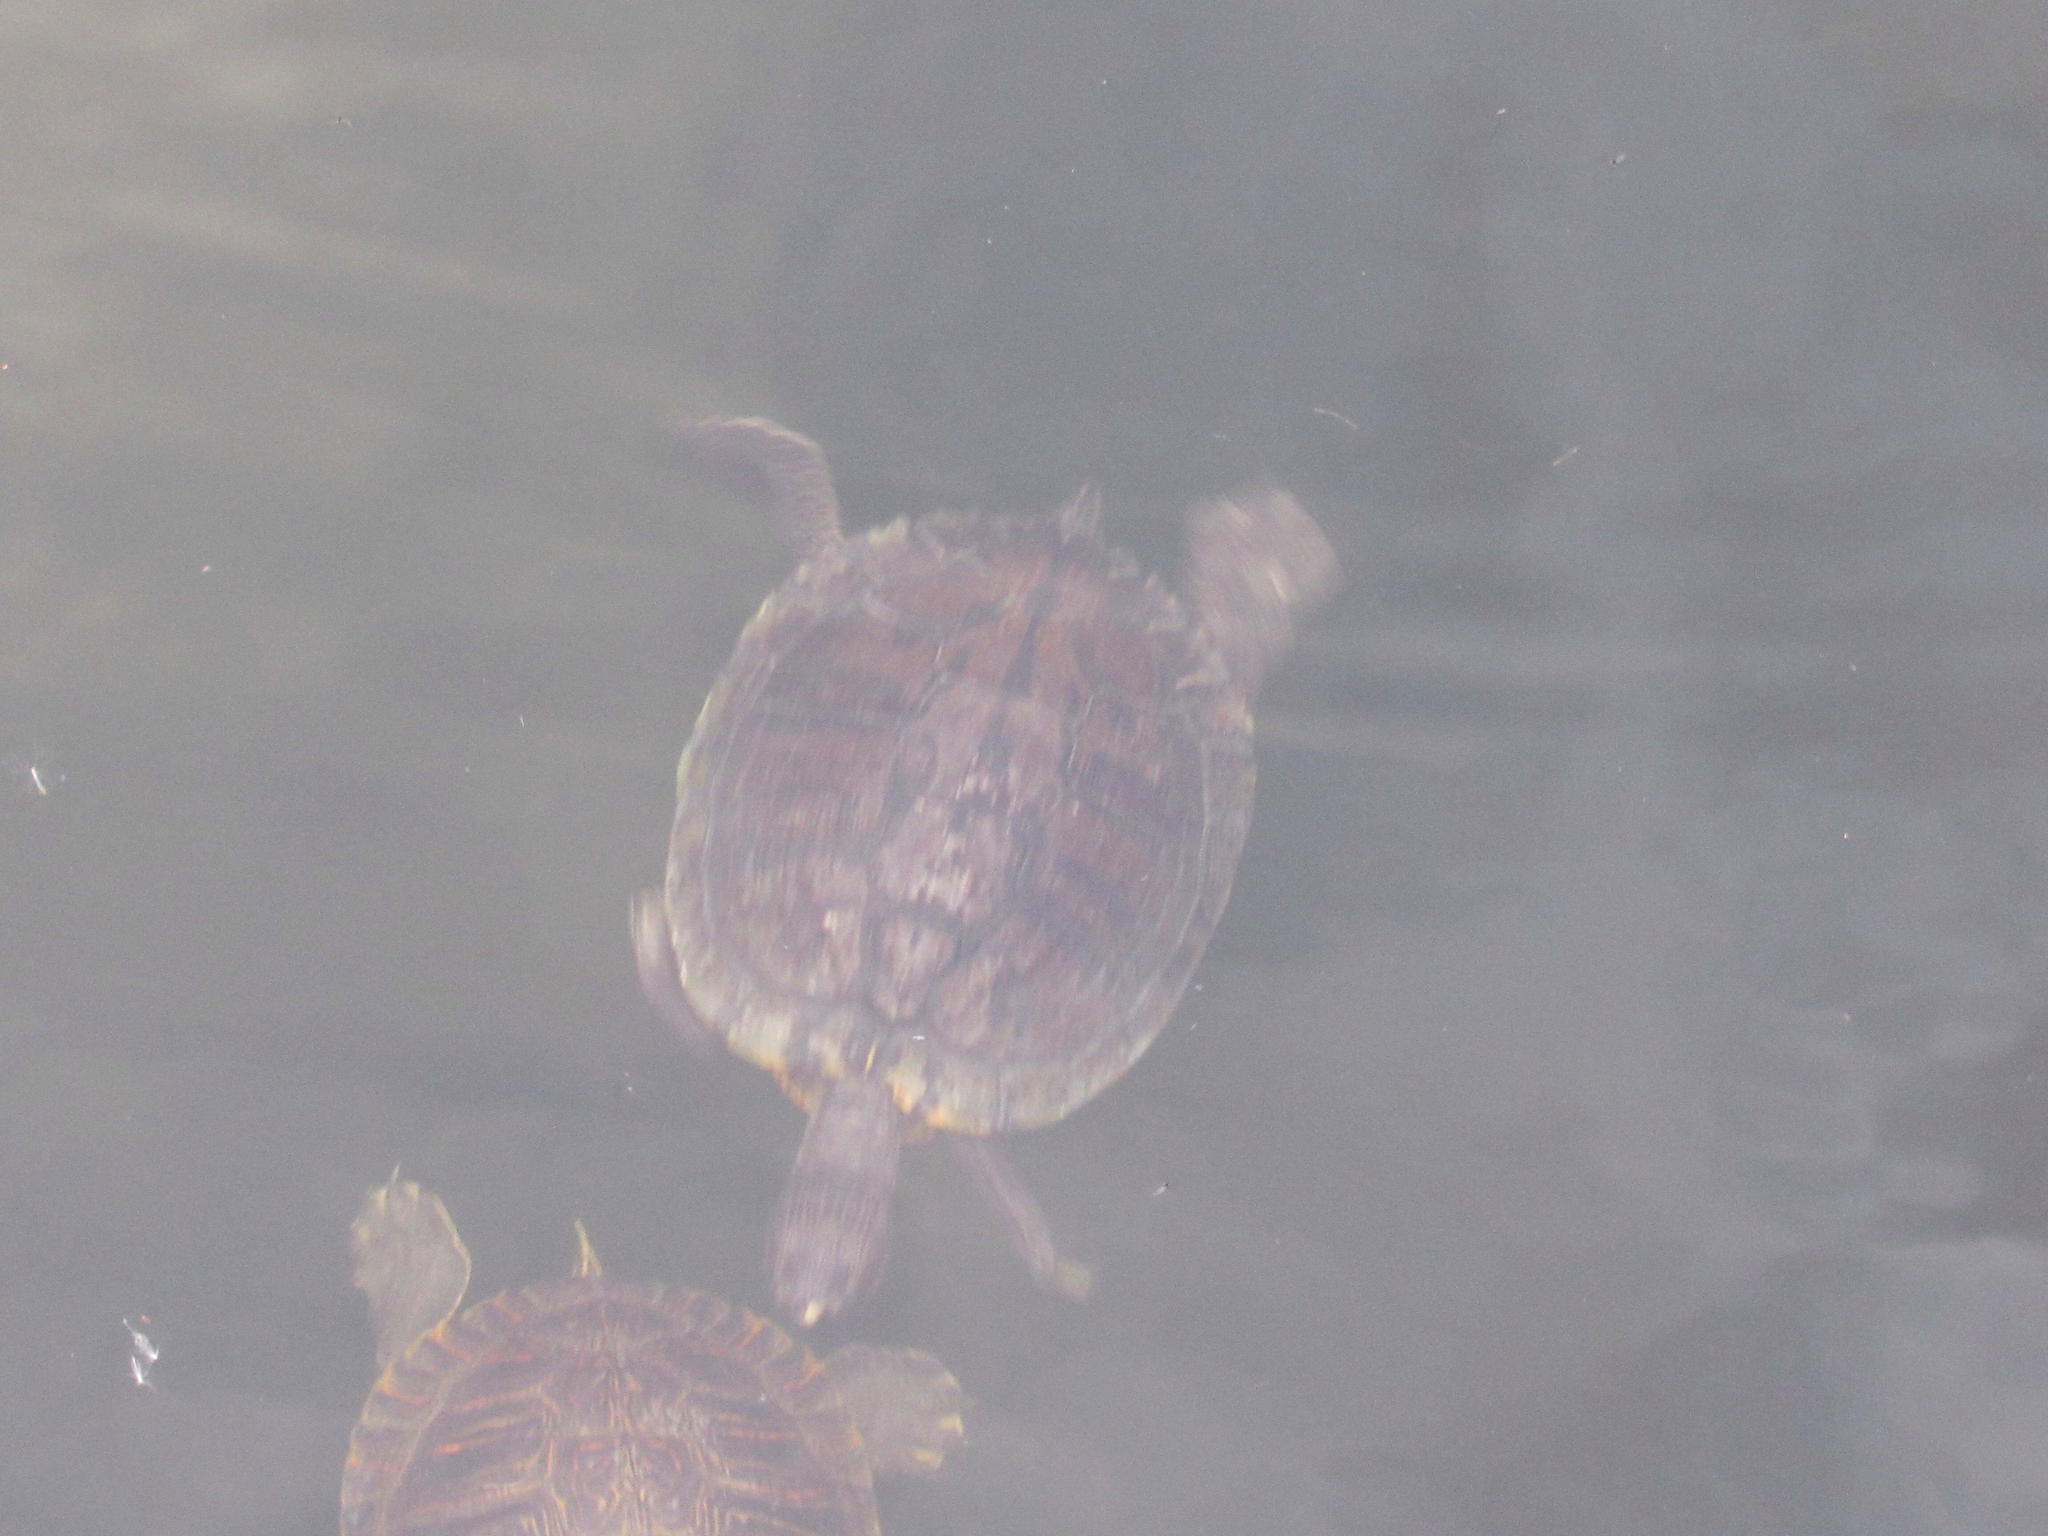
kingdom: Animalia
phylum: Chordata
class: Testudines
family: Emydidae
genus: Trachemys
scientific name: Trachemys scripta
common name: Slider
